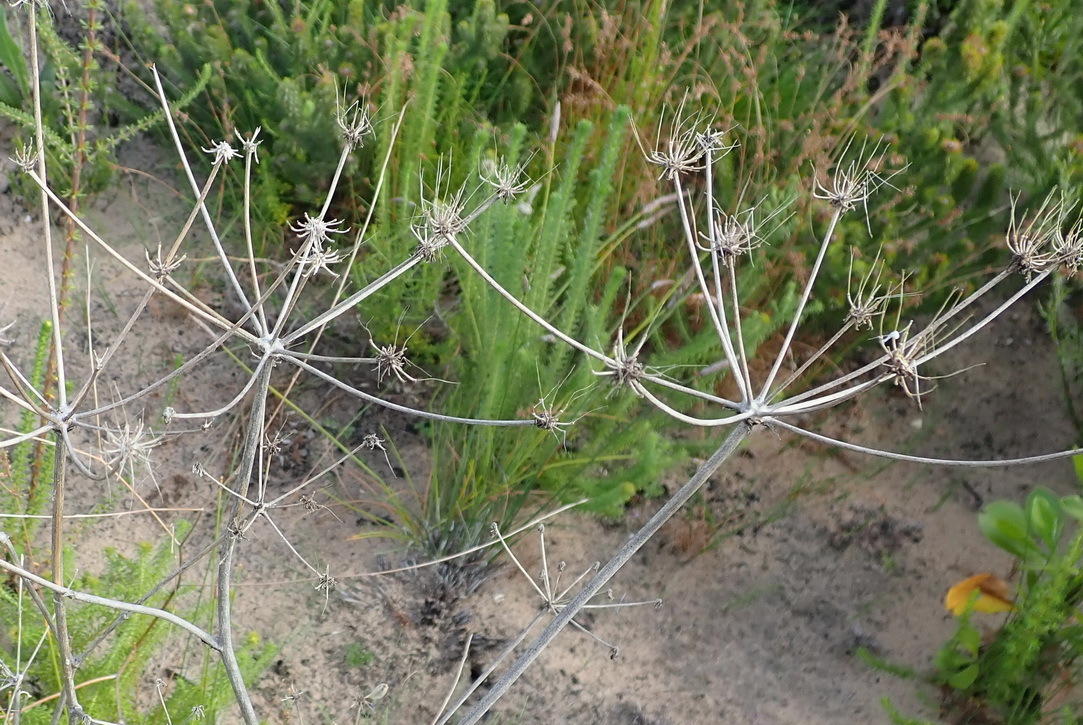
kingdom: Plantae
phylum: Tracheophyta
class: Magnoliopsida
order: Apiales
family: Apiaceae
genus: Annesorhiza
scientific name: Annesorhiza macrocarpa
